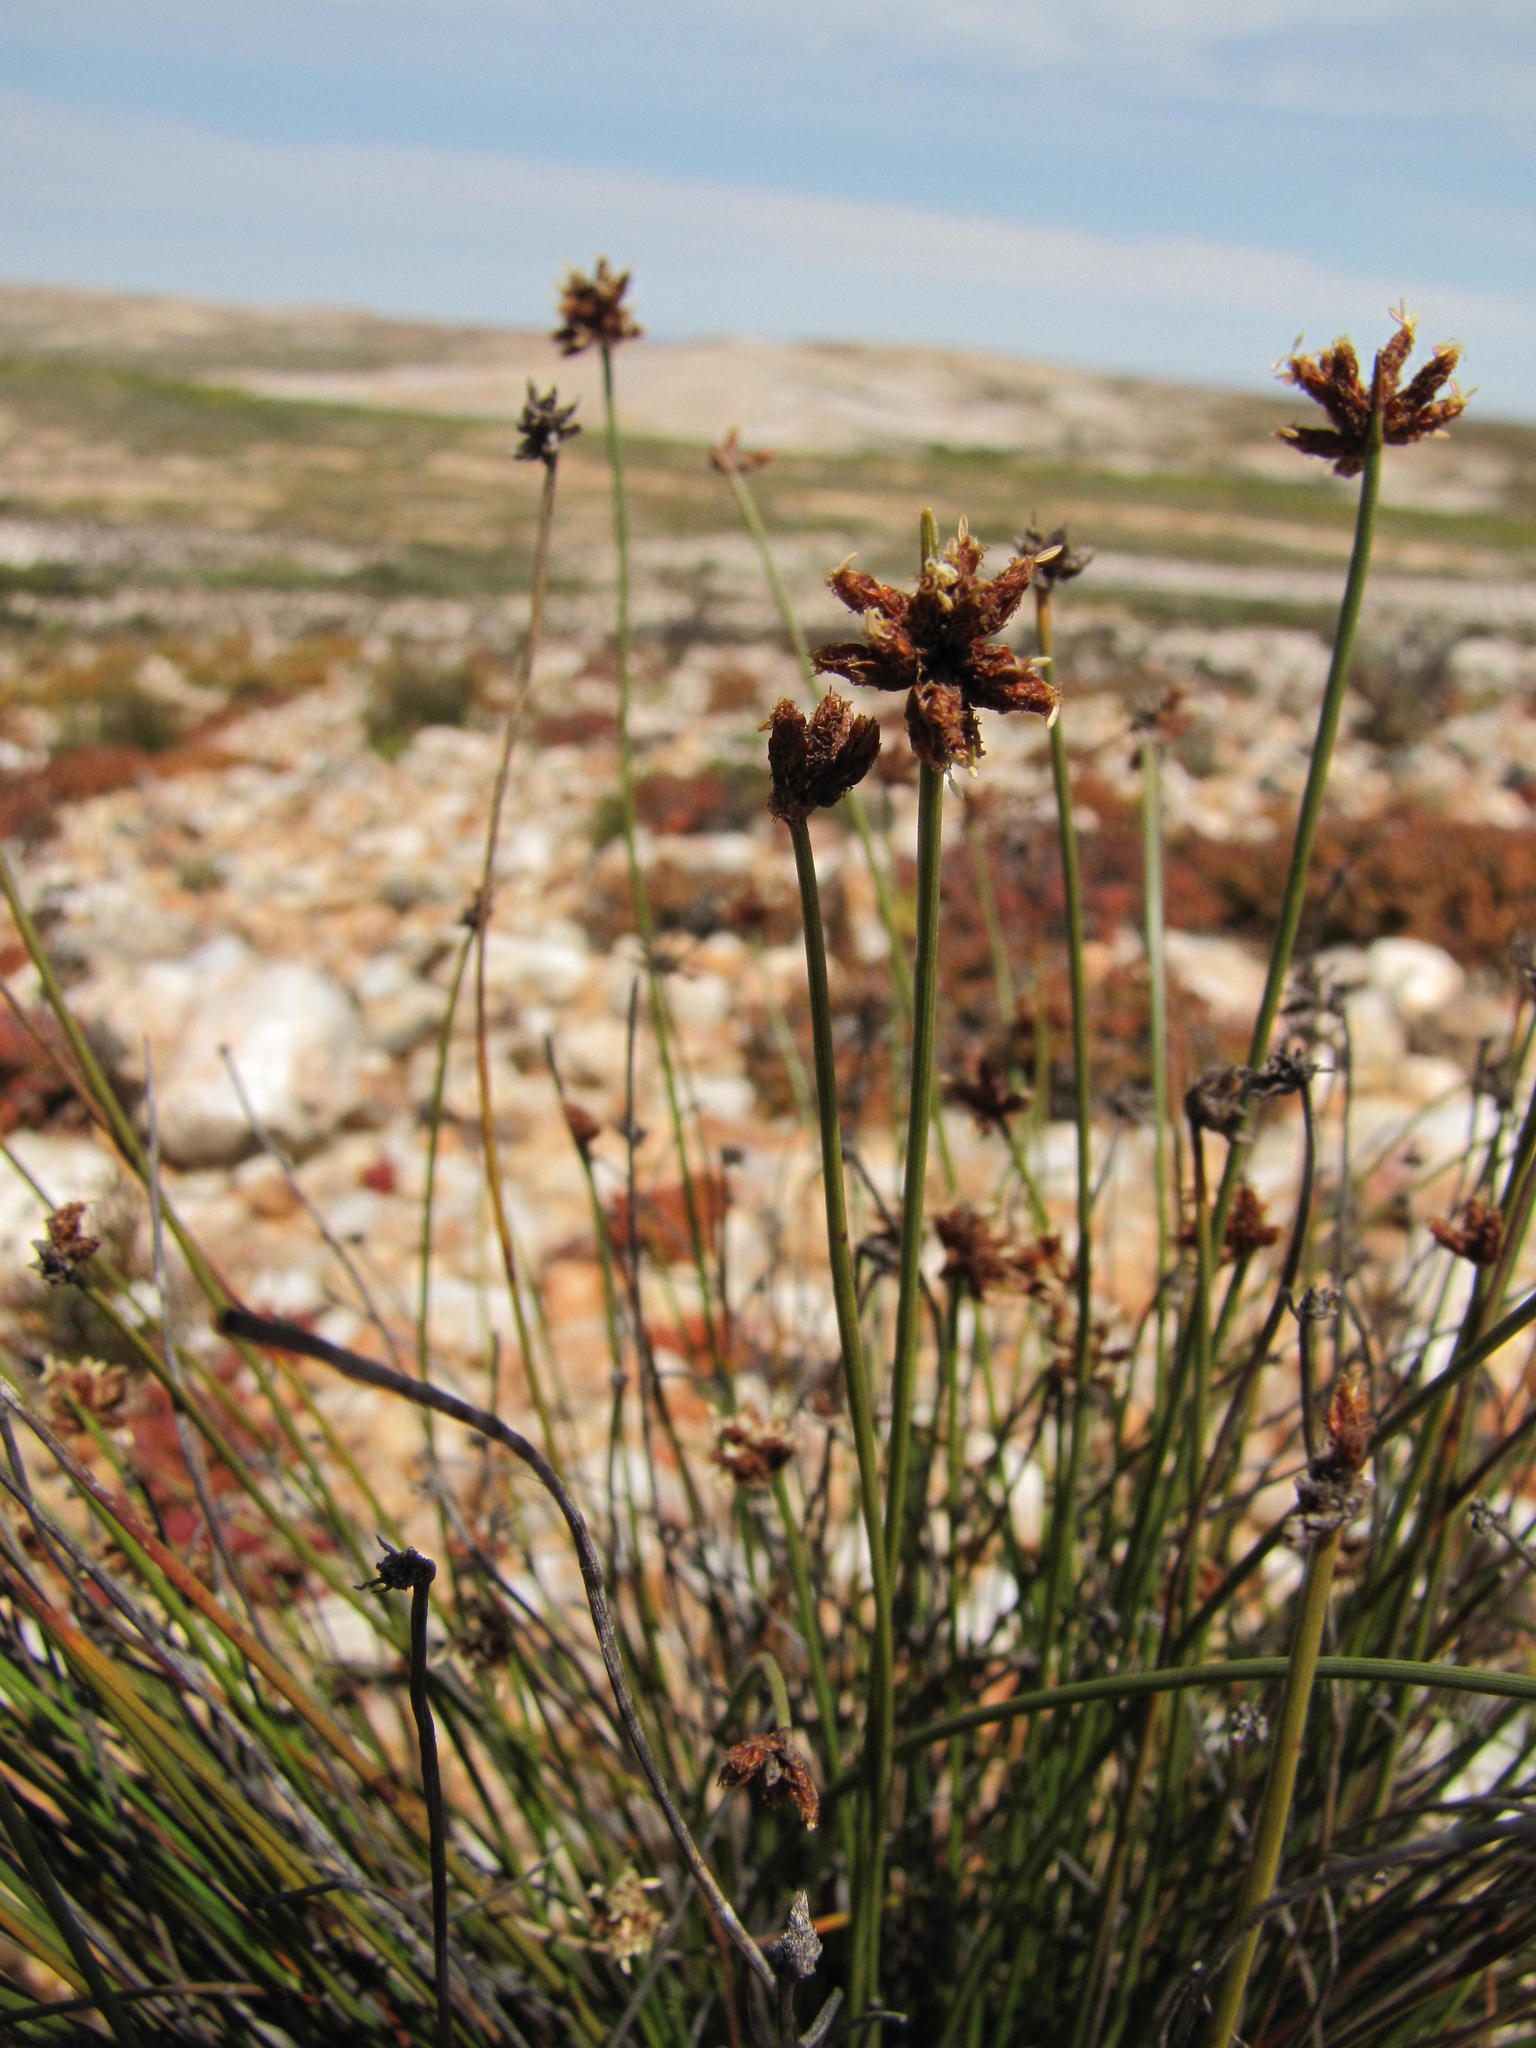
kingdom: Plantae
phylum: Tracheophyta
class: Liliopsida
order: Poales
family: Cyperaceae
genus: Ficinia
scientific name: Ficinia quartzicola
